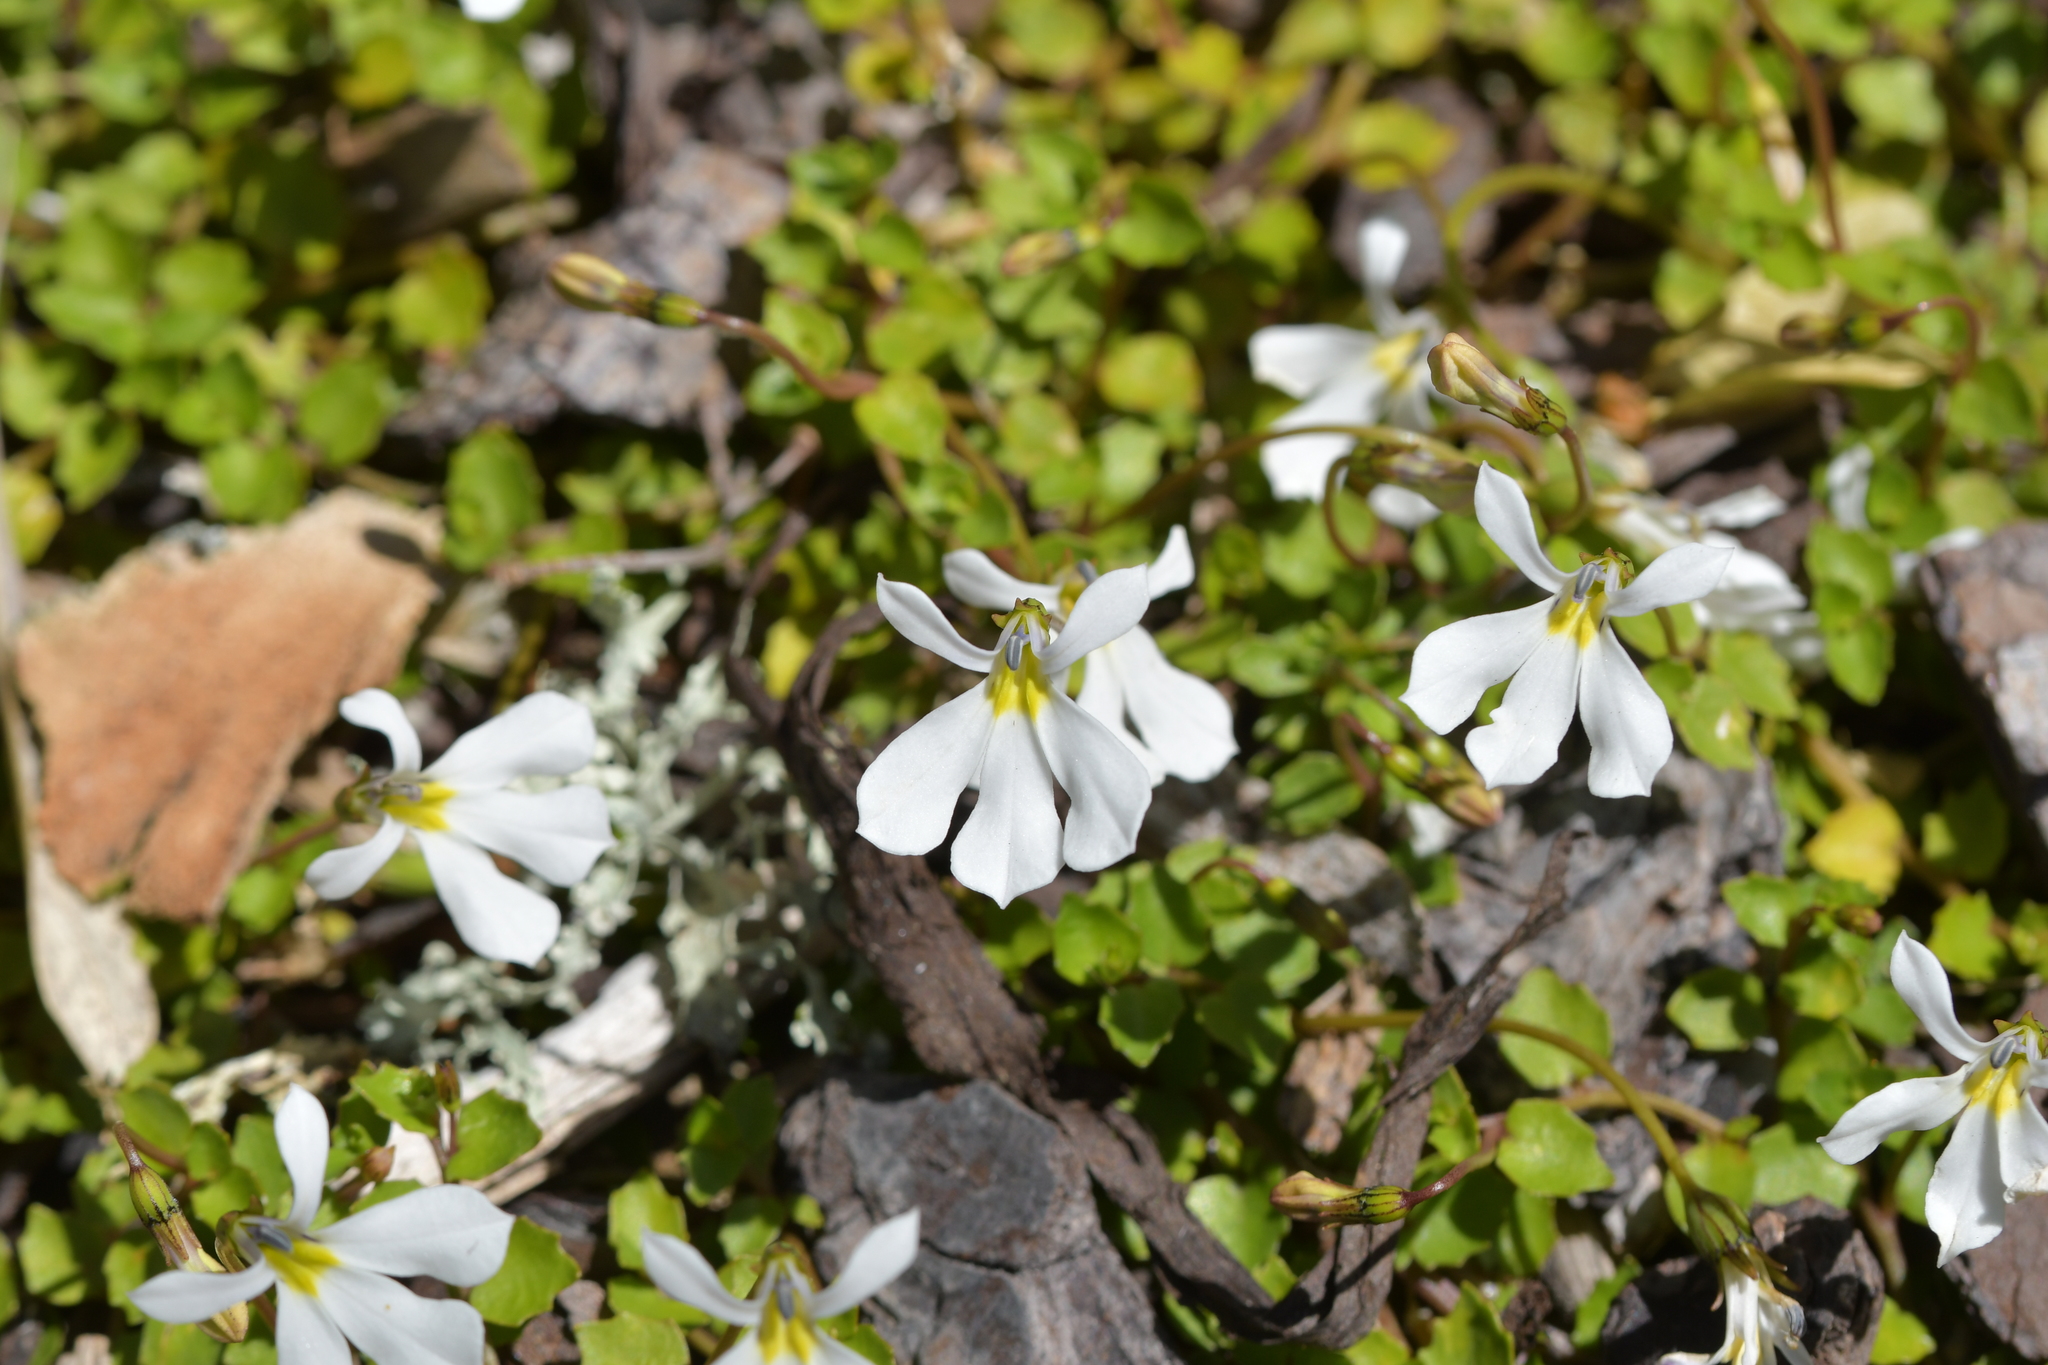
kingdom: Plantae
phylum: Tracheophyta
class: Magnoliopsida
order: Asterales
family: Campanulaceae
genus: Lobelia
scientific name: Lobelia angulata
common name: Lawn lobelia
